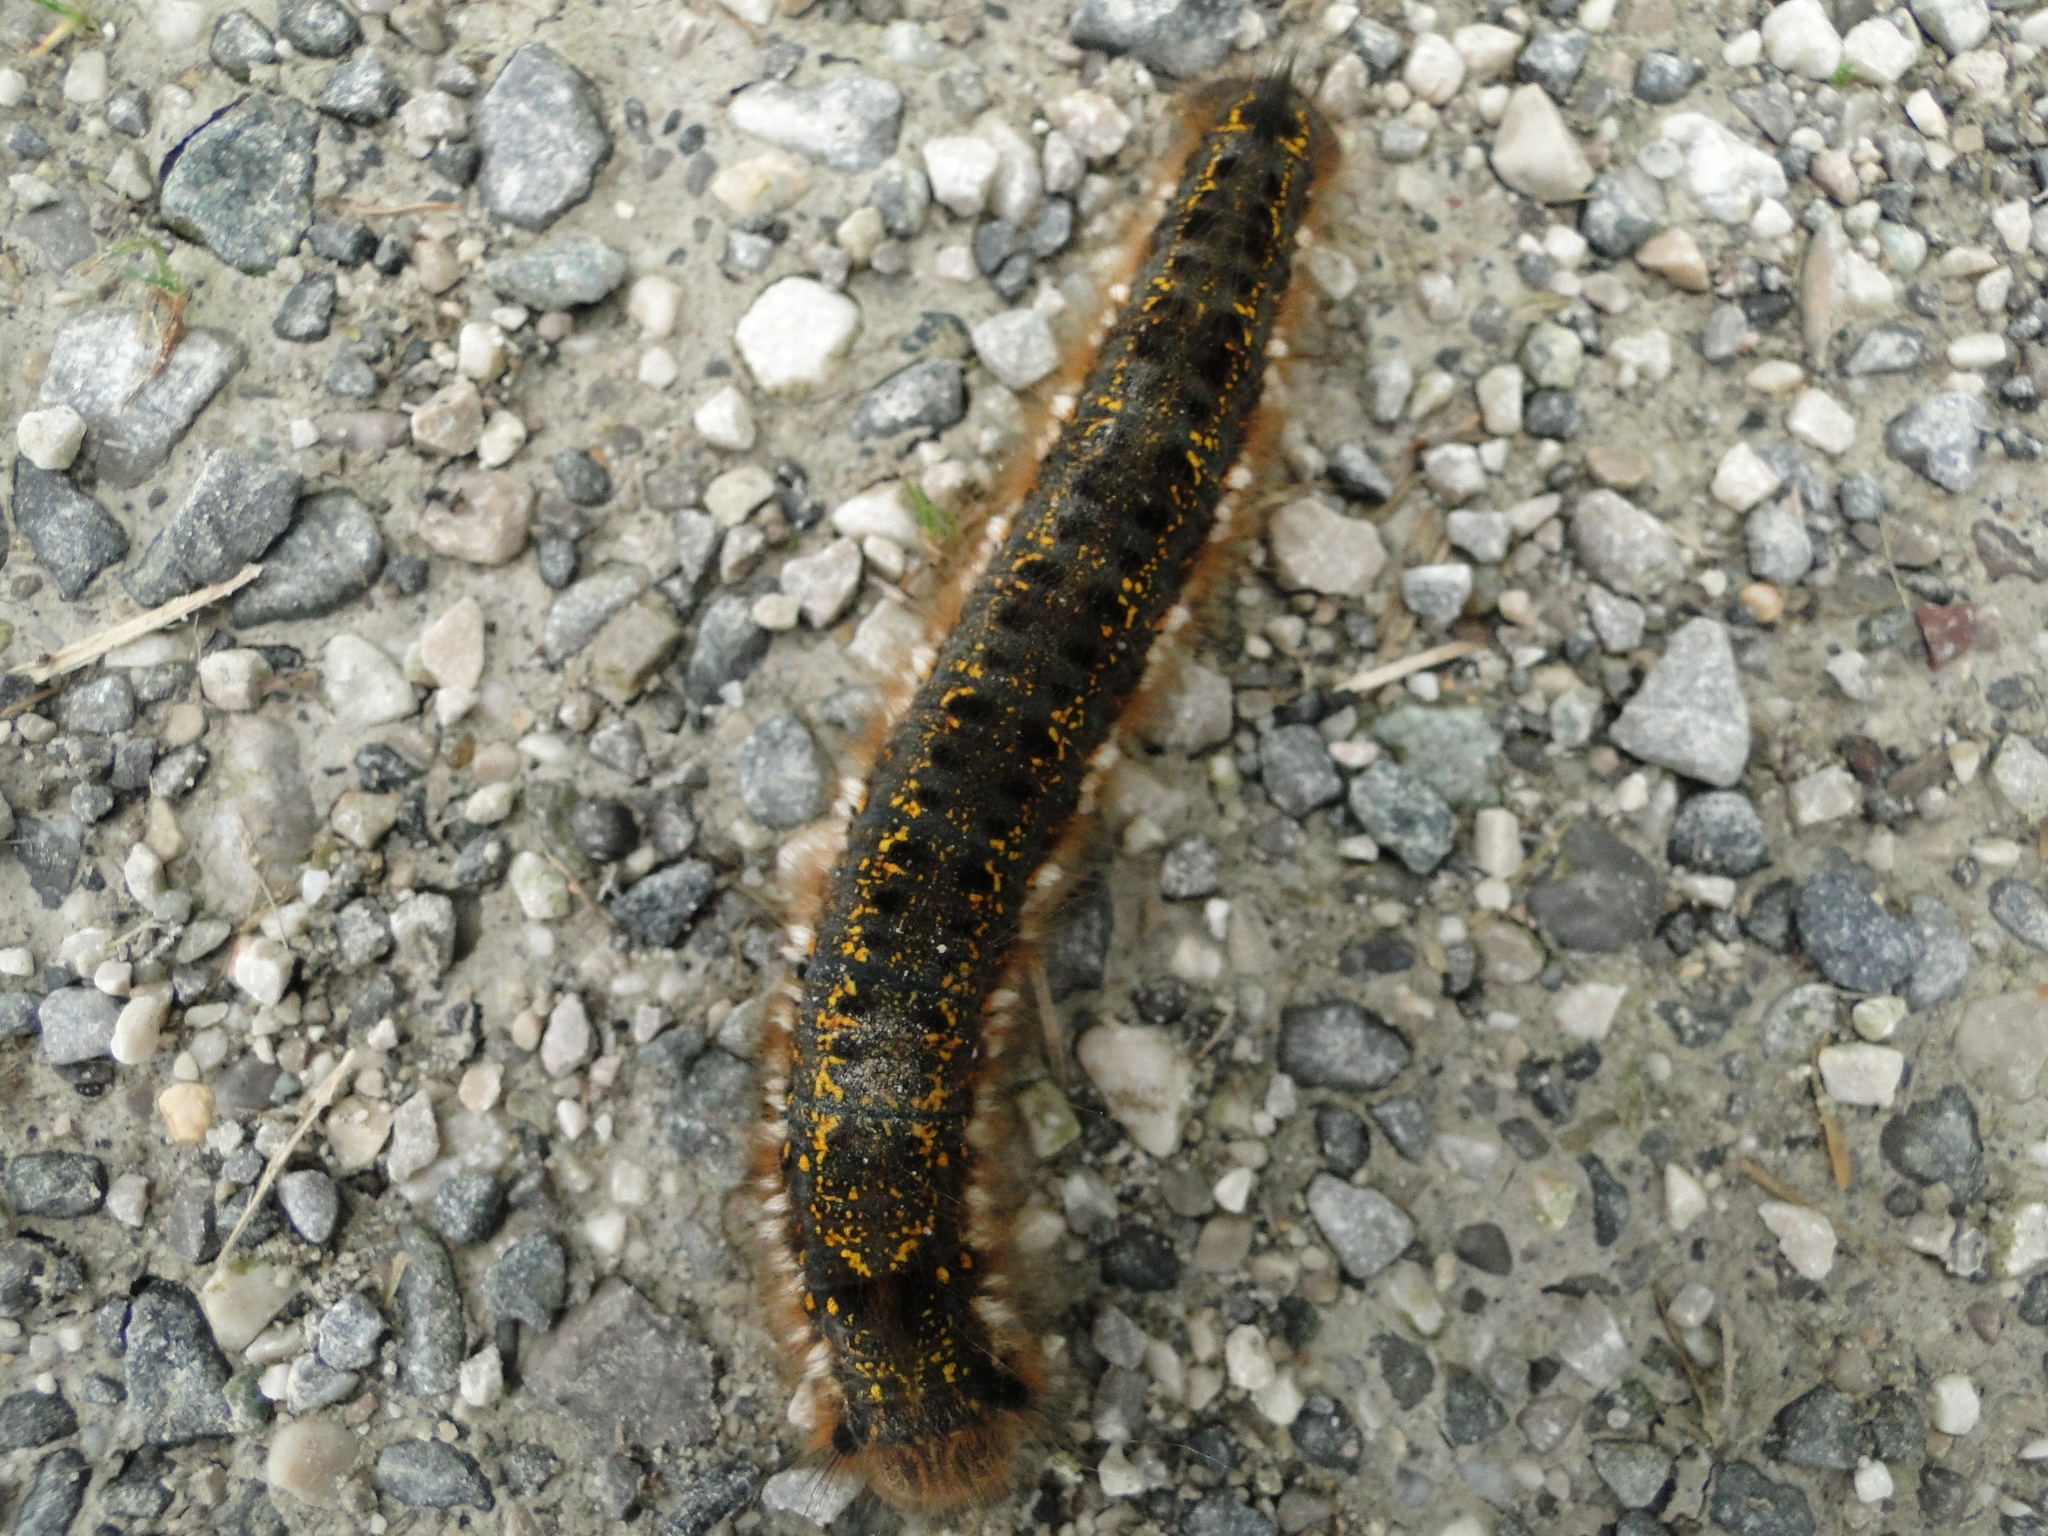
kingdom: Animalia
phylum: Arthropoda
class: Insecta
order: Lepidoptera
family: Lasiocampidae
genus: Euthrix
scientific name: Euthrix potatoria
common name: Drinker
